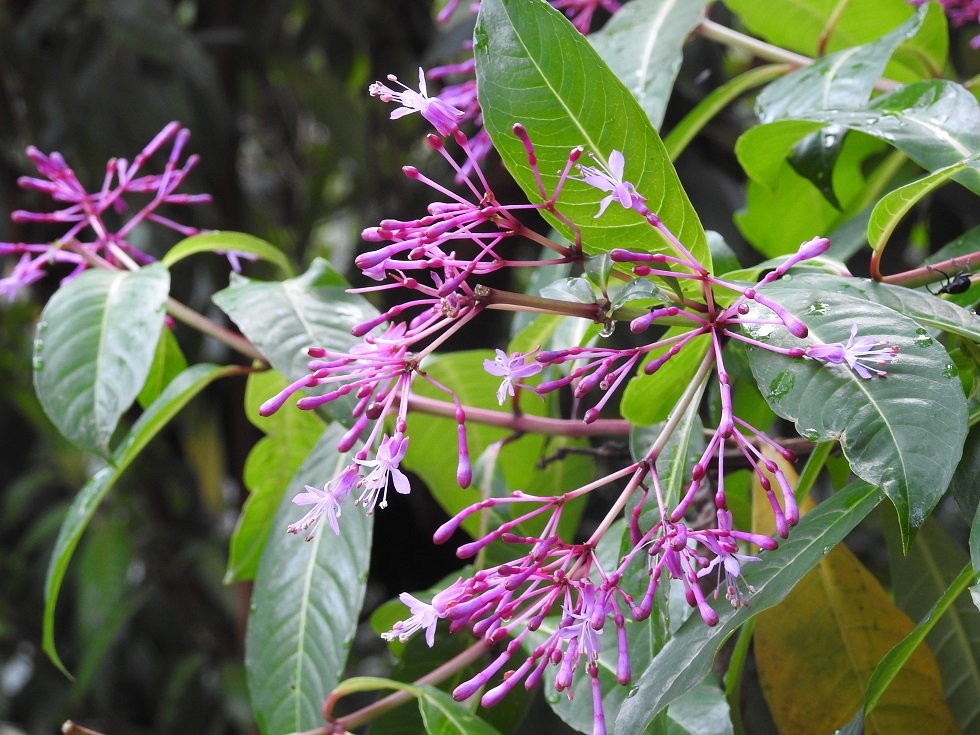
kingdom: Plantae
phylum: Tracheophyta
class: Magnoliopsida
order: Myrtales
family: Onagraceae
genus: Fuchsia
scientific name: Fuchsia paniculata
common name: Shrubby fuchsia
